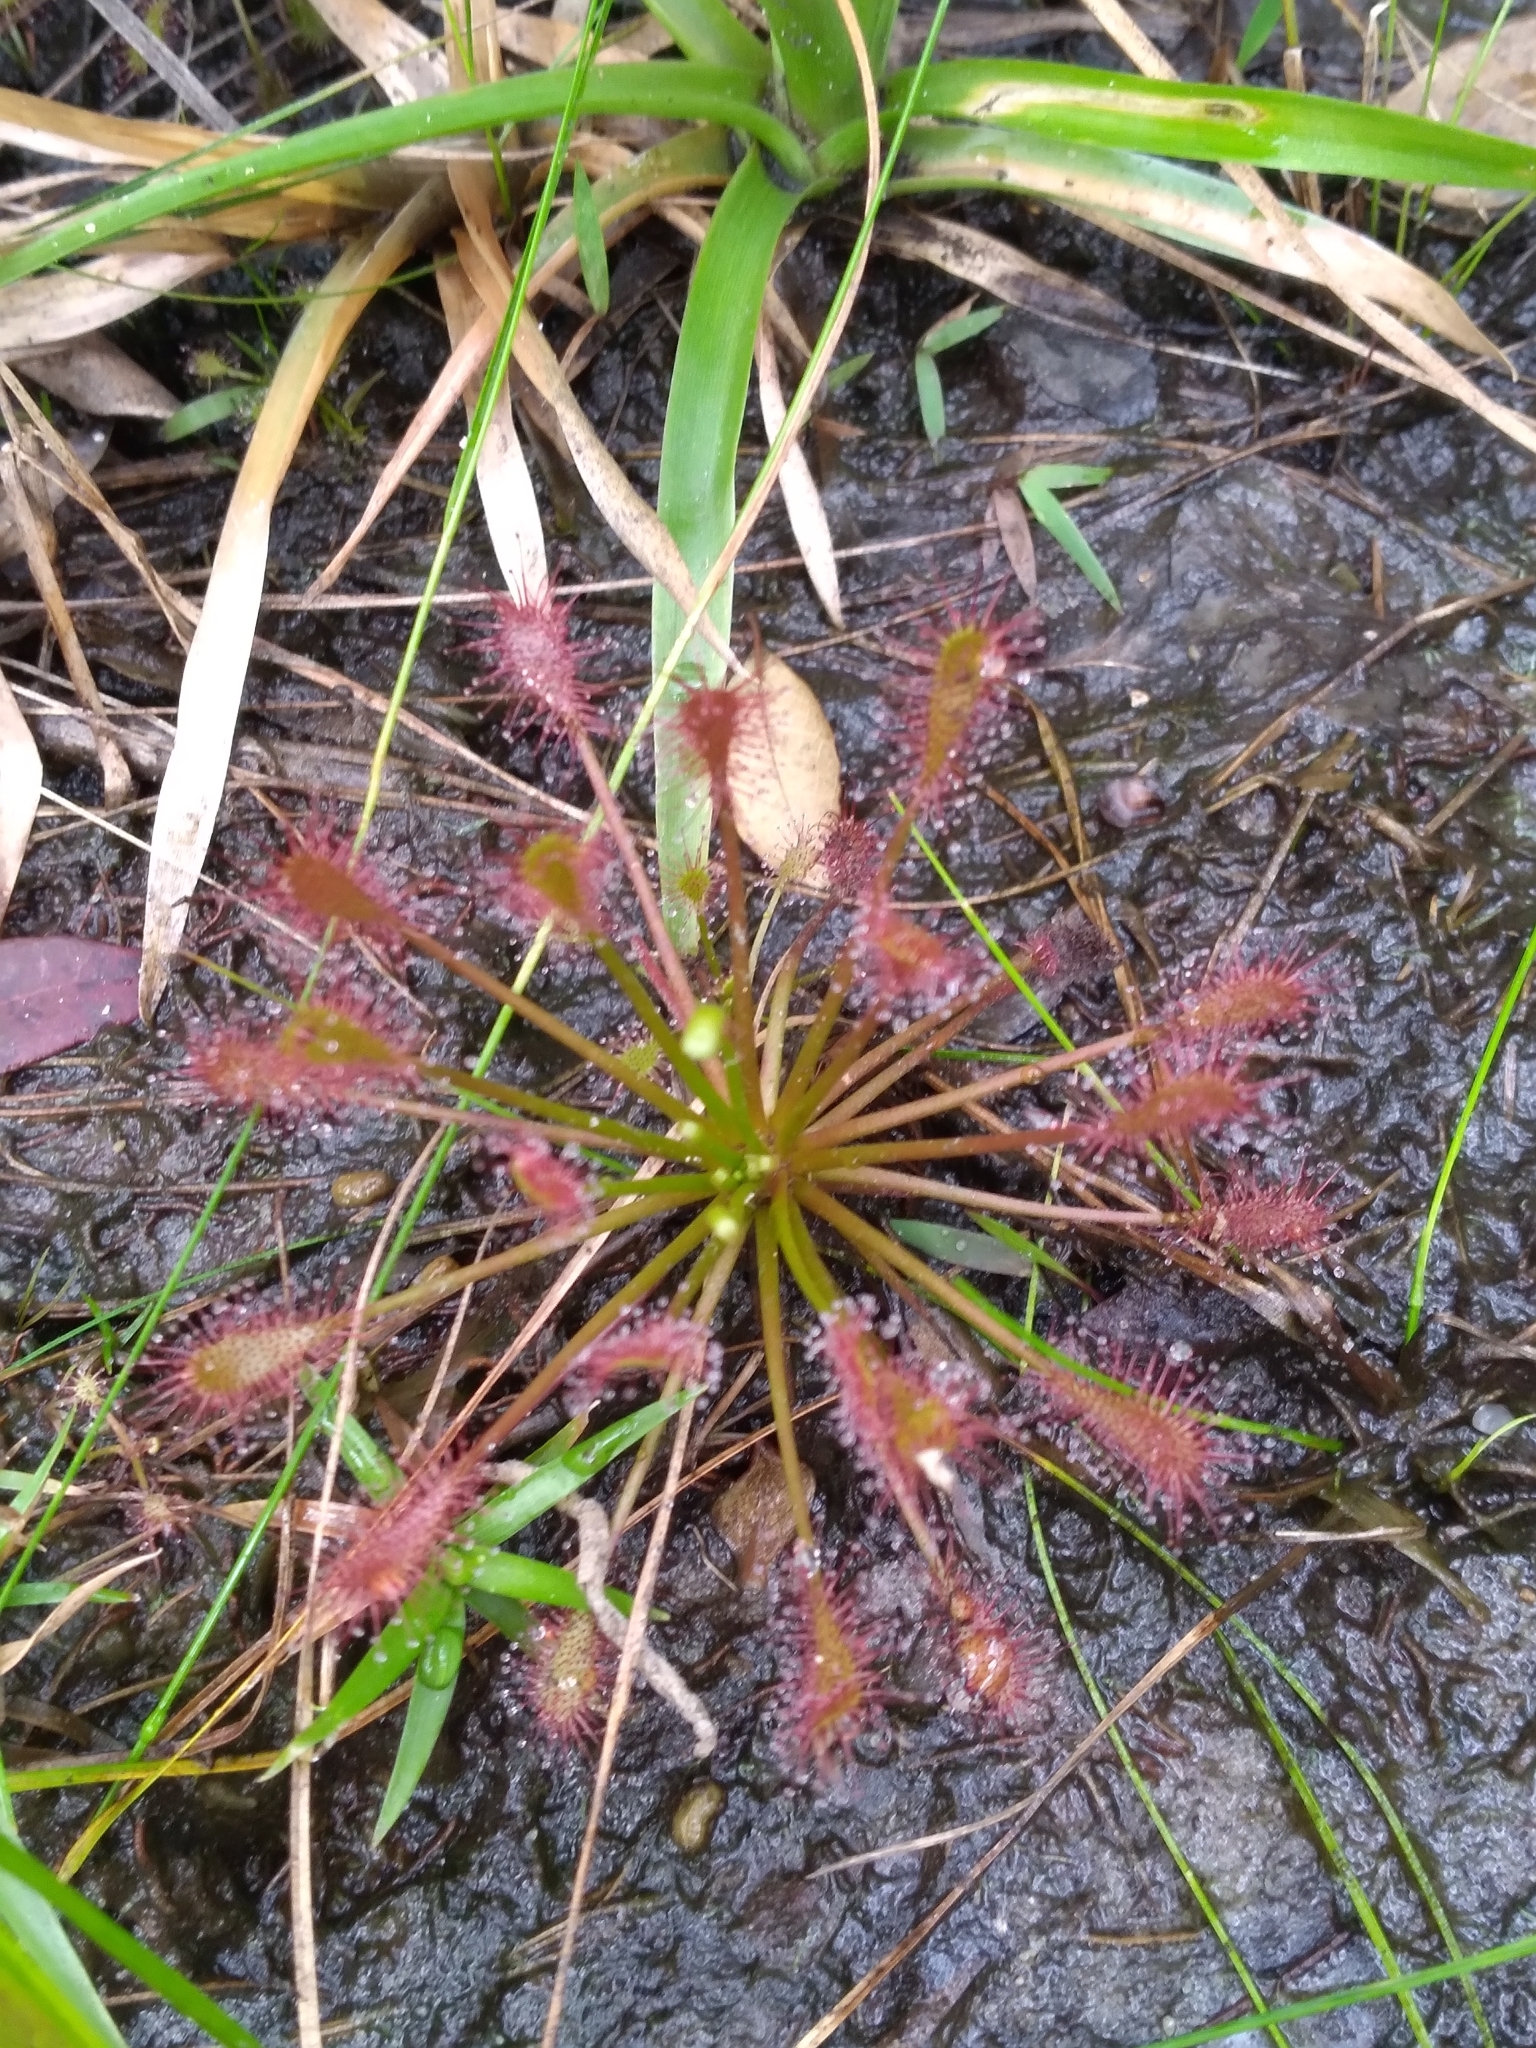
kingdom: Plantae
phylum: Tracheophyta
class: Magnoliopsida
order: Caryophyllales
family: Droseraceae
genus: Drosera
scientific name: Drosera intermedia
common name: Oblong-leaved sundew
